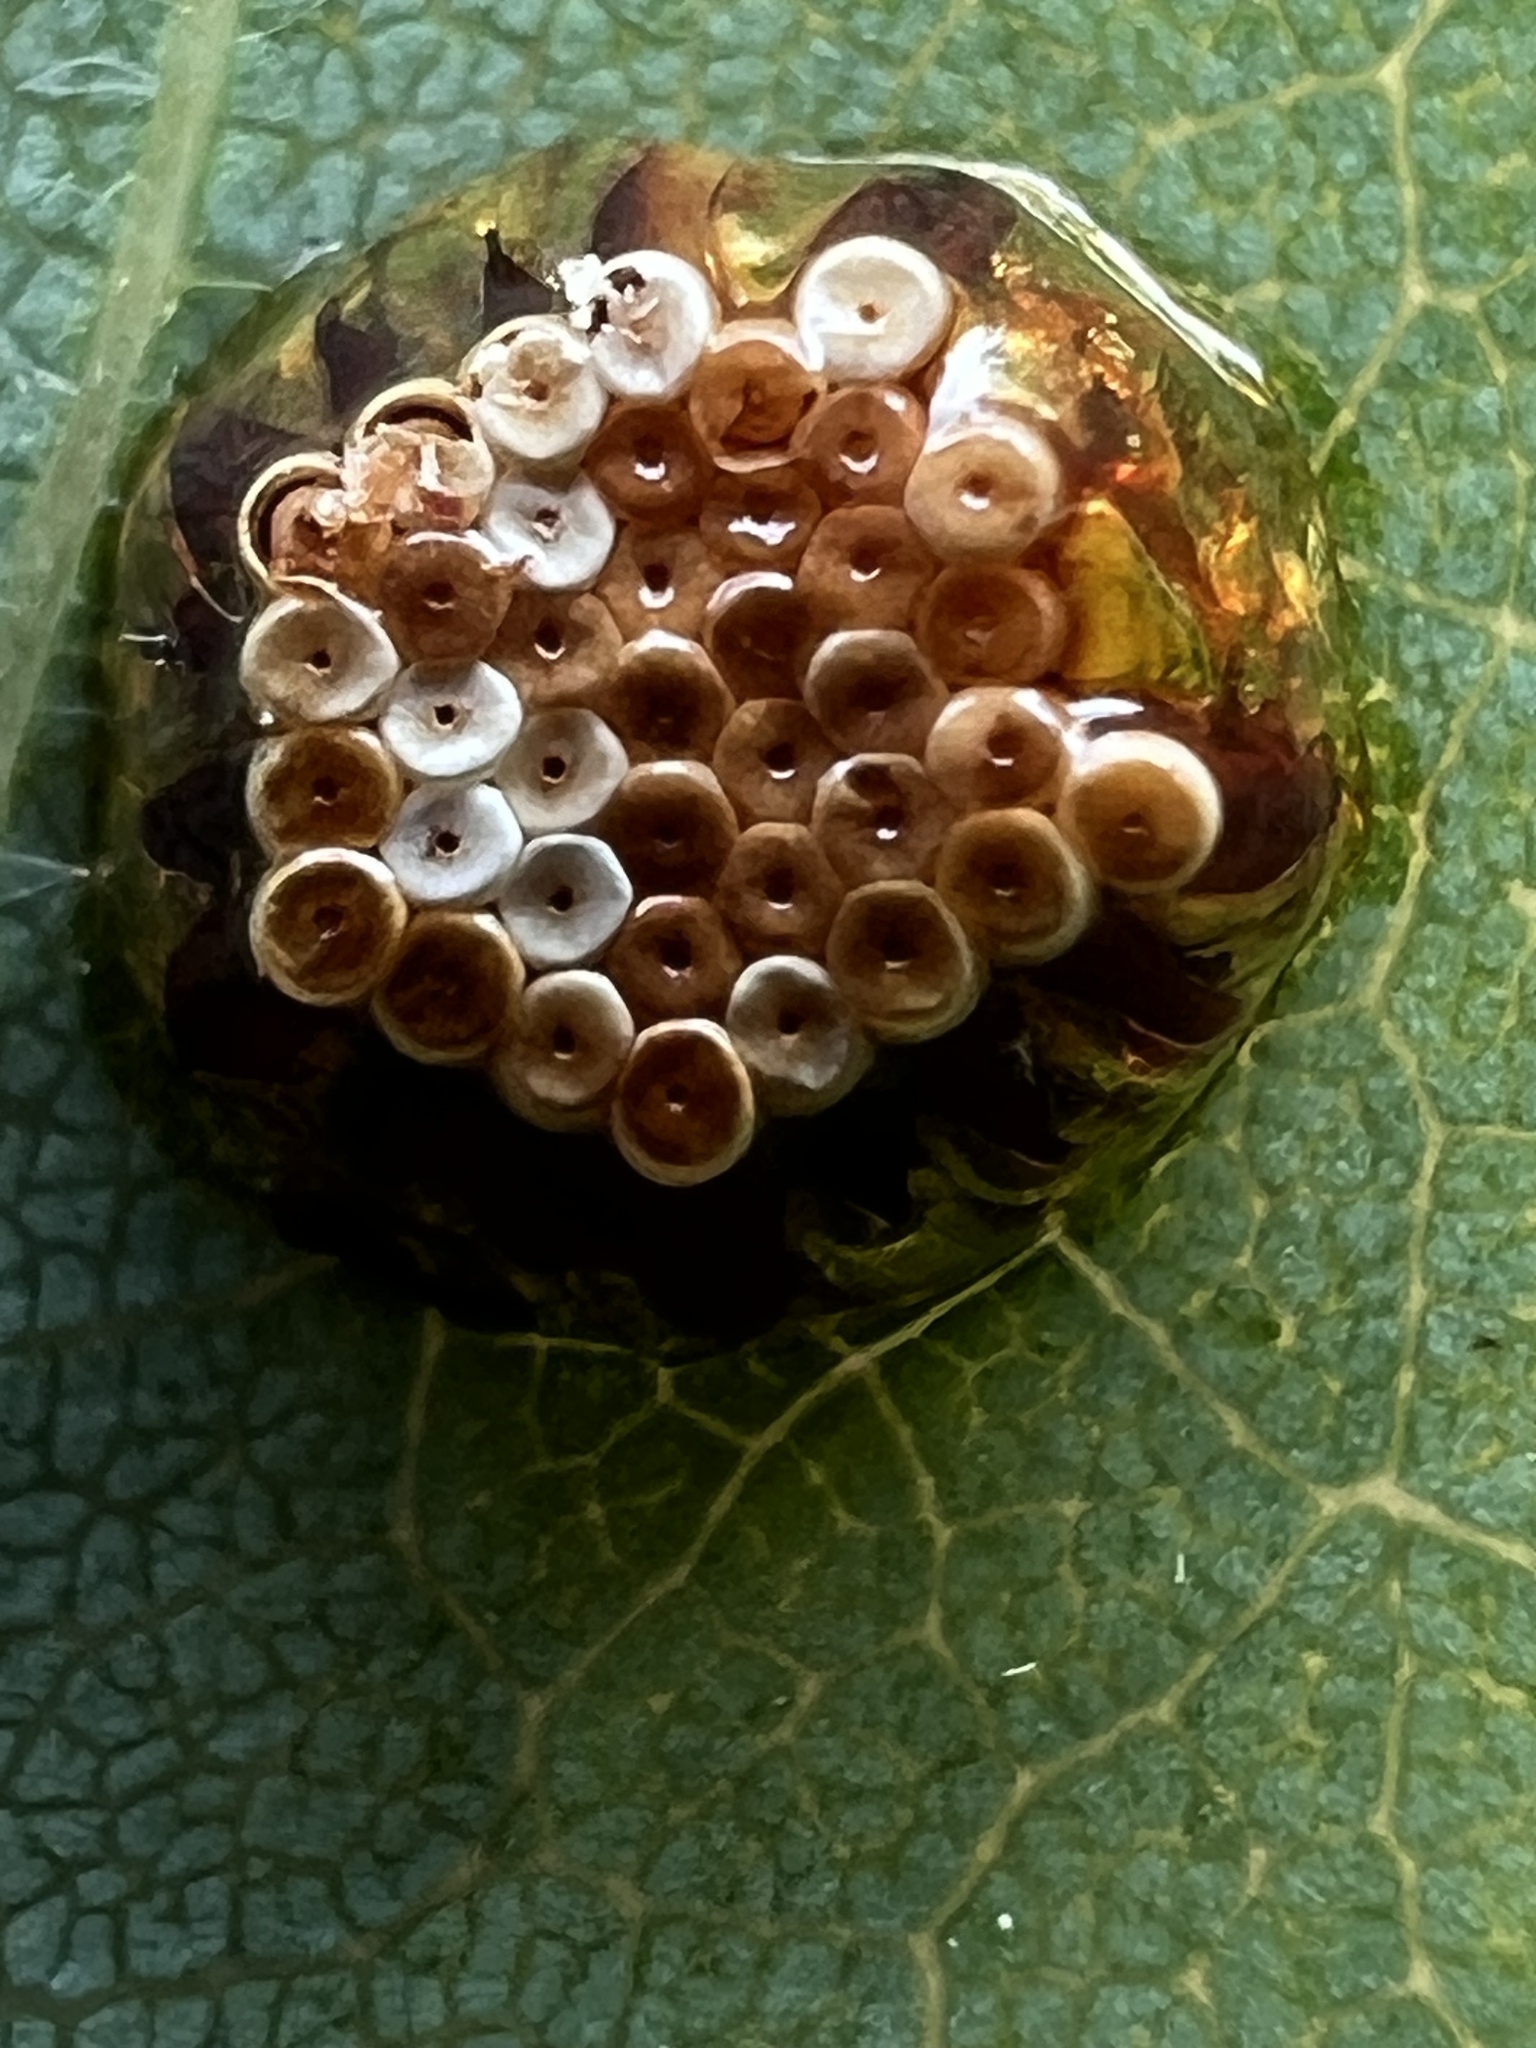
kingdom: Animalia
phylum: Arthropoda
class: Insecta
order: Hemiptera
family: Reduviidae
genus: Zelus
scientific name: Zelus luridus
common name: Pale green assassin bug
